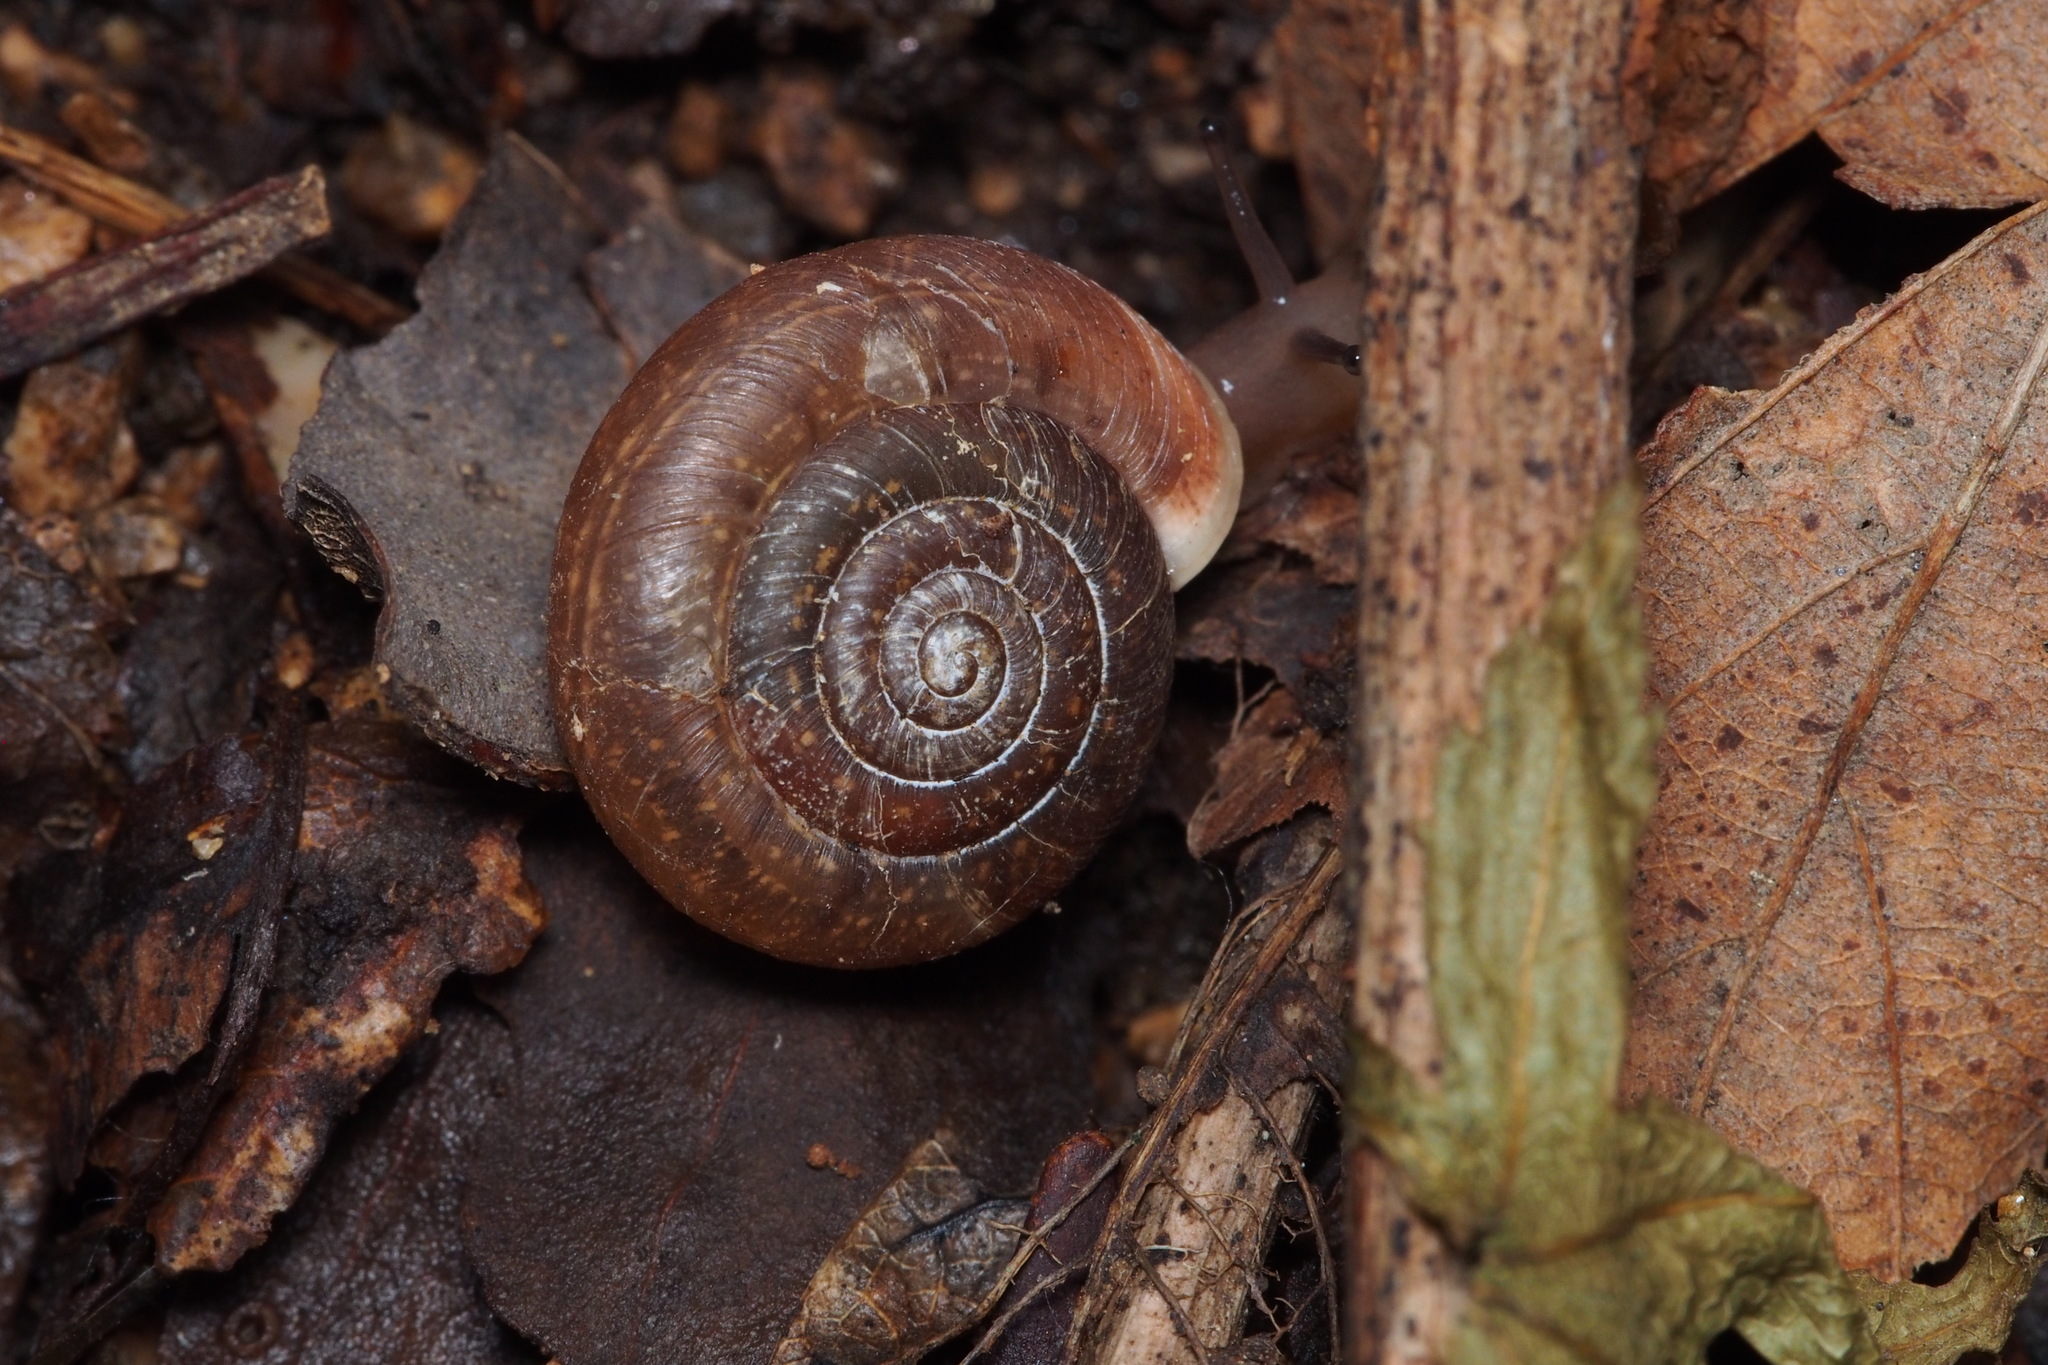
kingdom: Animalia
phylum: Mollusca
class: Gastropoda
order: Stylommatophora
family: Camaenidae
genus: Aegista
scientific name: Aegista kobensis
